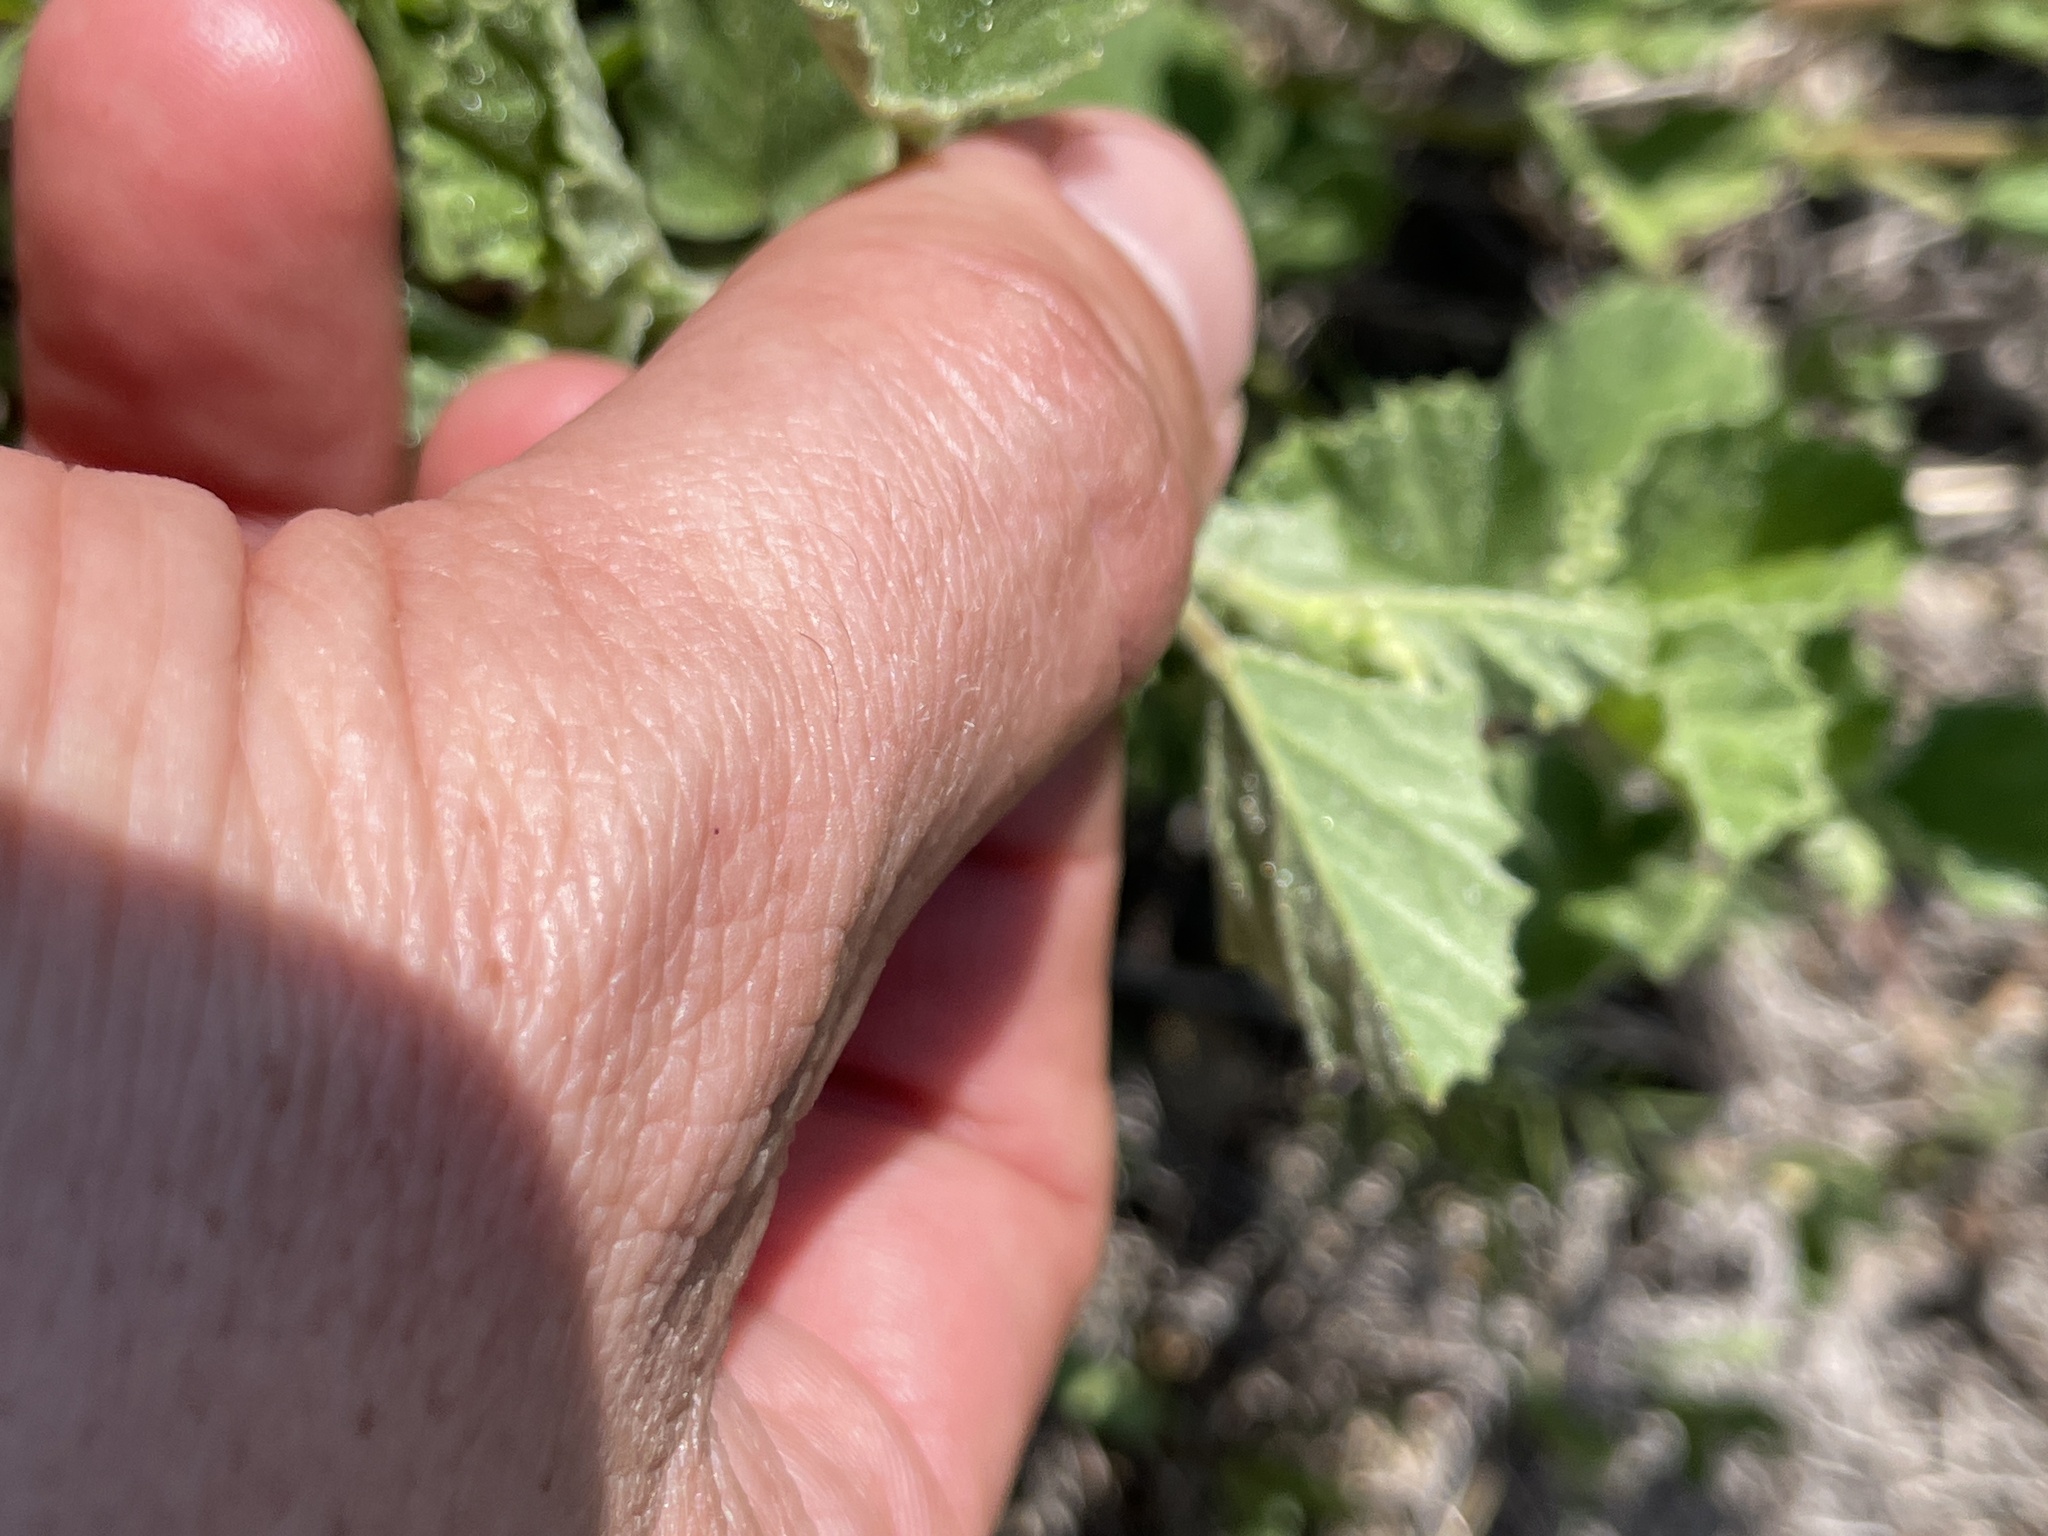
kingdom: Plantae
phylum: Tracheophyta
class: Magnoliopsida
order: Malvales
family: Malvaceae
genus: Hermannia
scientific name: Hermannia texana
